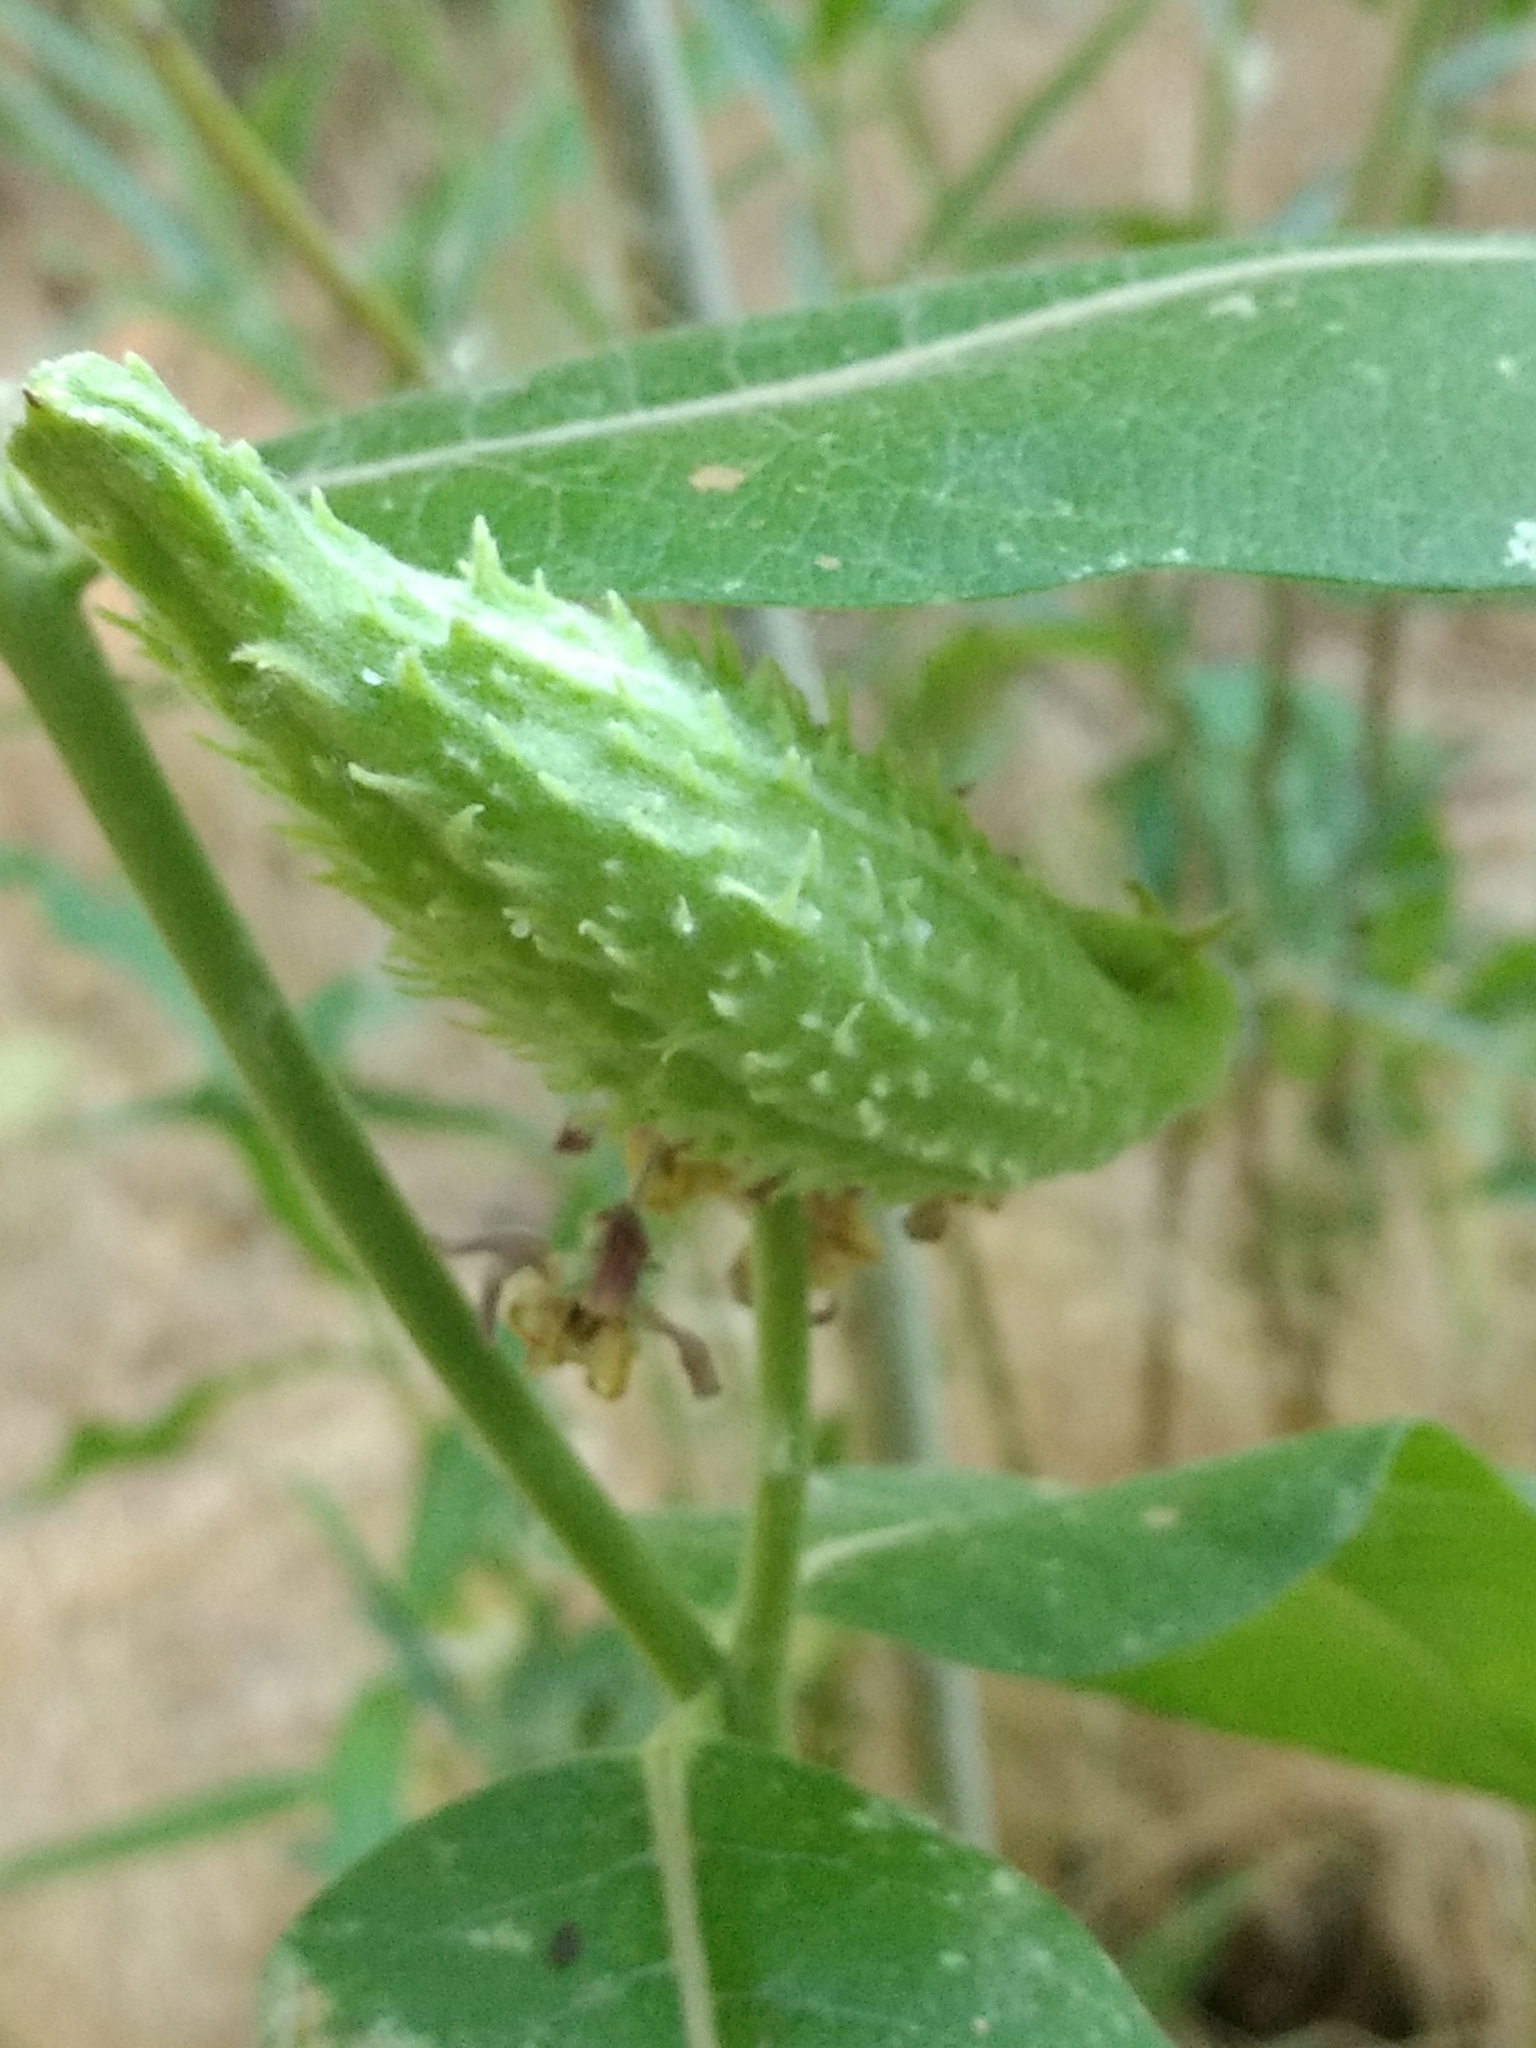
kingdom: Plantae
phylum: Tracheophyta
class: Magnoliopsida
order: Gentianales
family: Apocynaceae
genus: Asclepias
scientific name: Asclepias speciosa
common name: Showy milkweed
